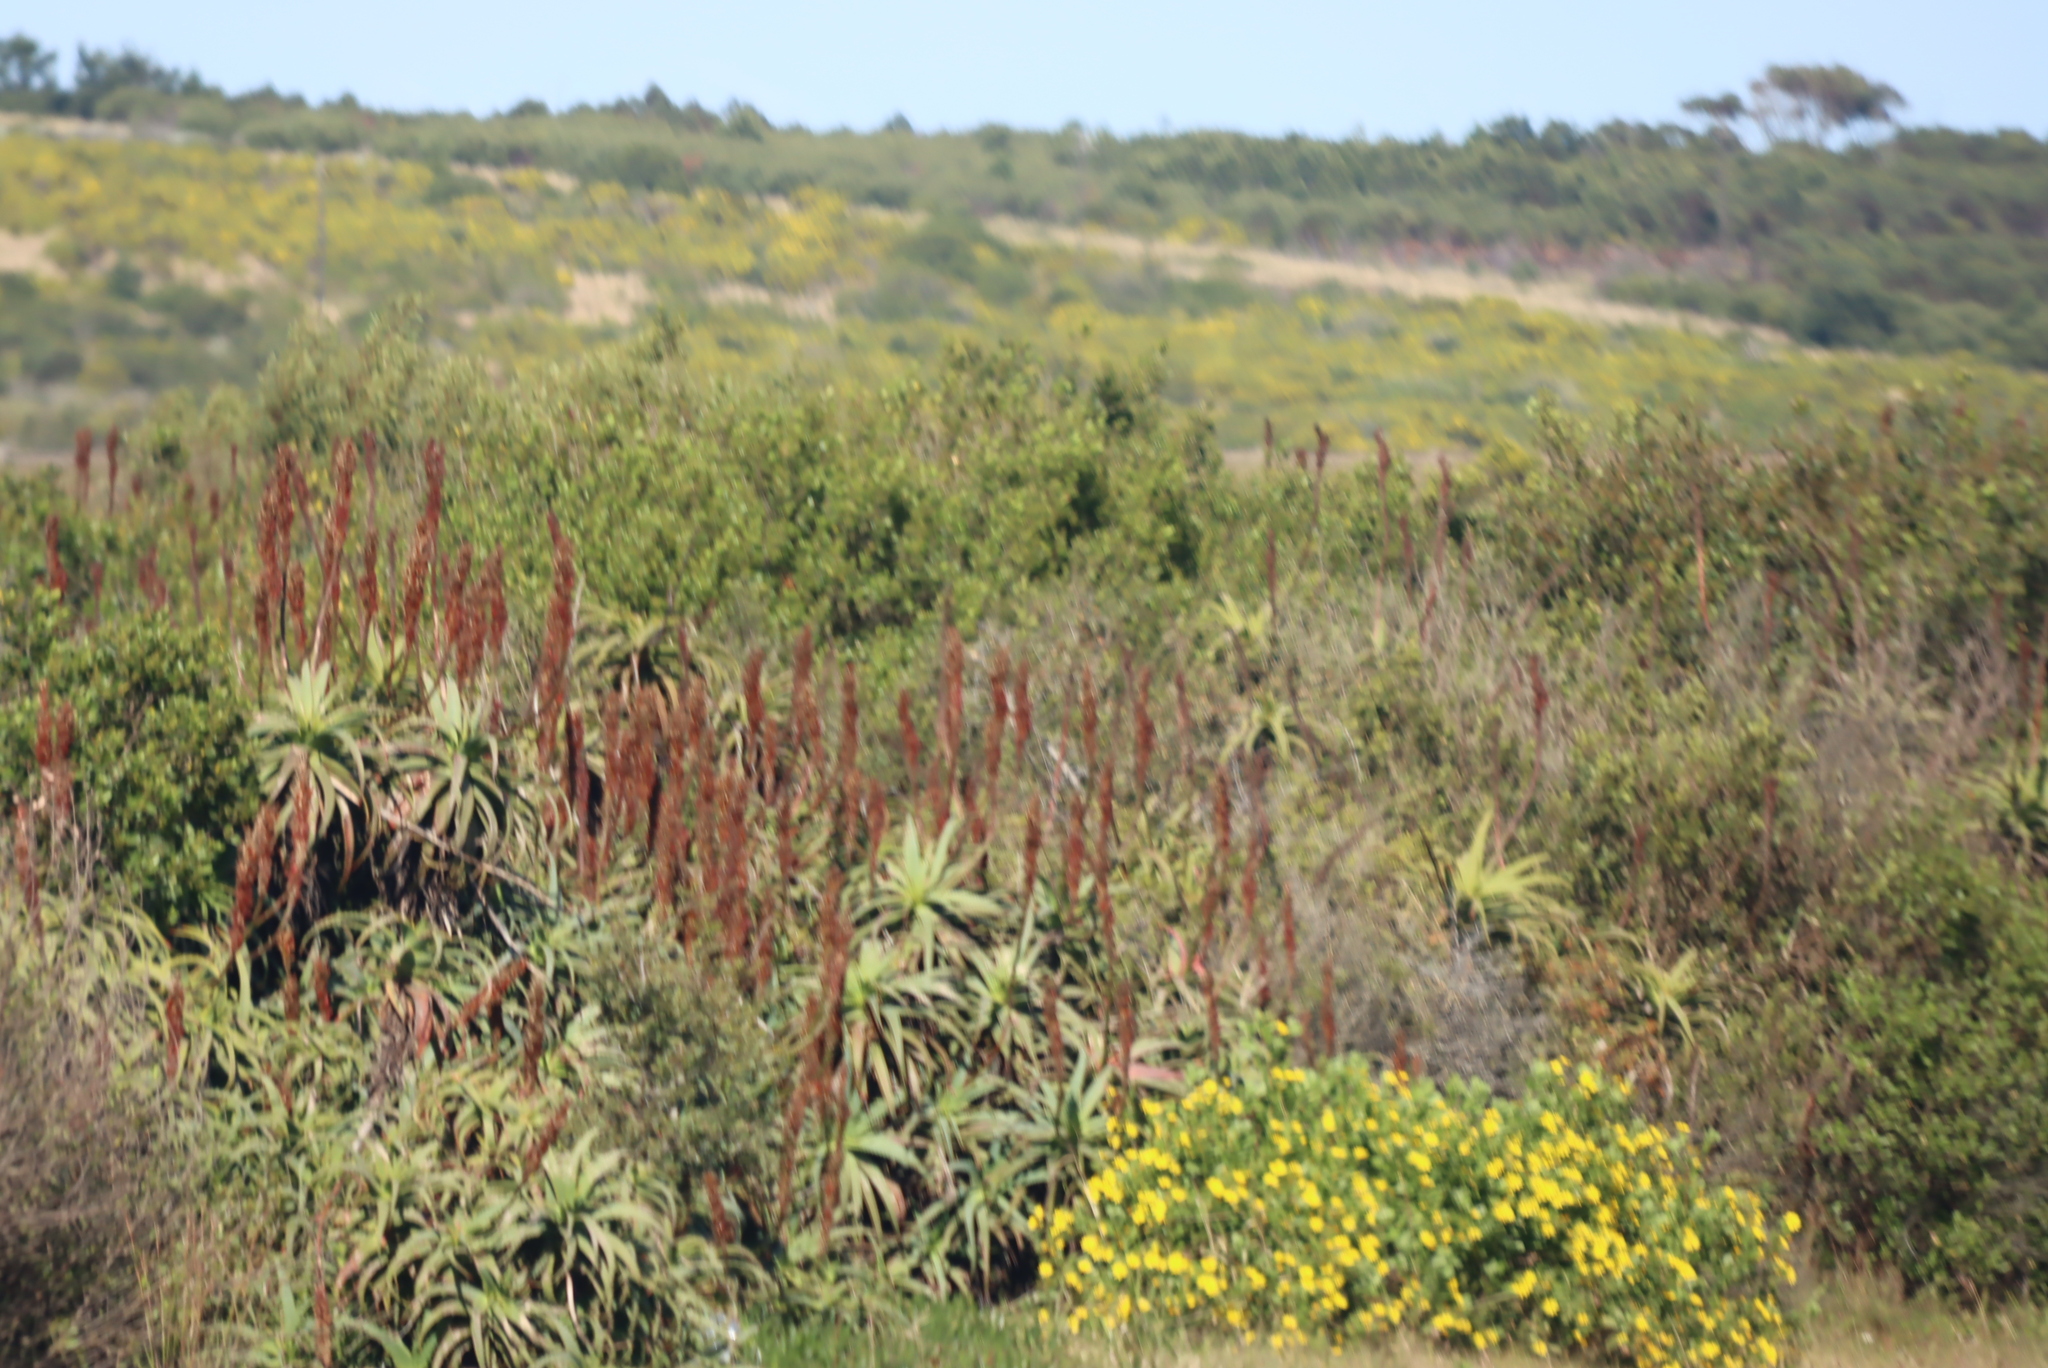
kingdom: Plantae
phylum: Tracheophyta
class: Liliopsida
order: Asparagales
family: Asphodelaceae
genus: Aloe
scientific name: Aloe arborescens
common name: Candelabra aloe
